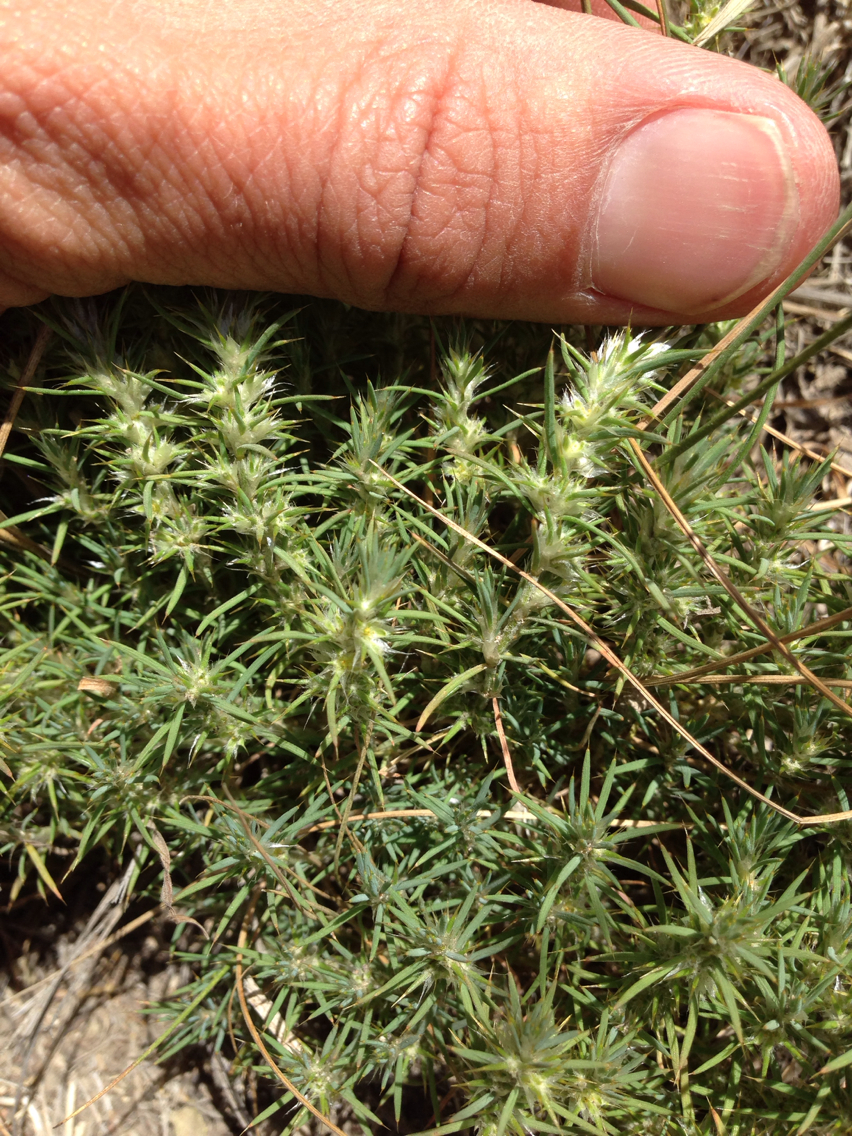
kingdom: Plantae
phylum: Tracheophyta
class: Magnoliopsida
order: Caryophyllales
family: Caryophyllaceae
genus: Cardionema
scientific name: Cardionema ramosissima
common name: Sandcarpet
